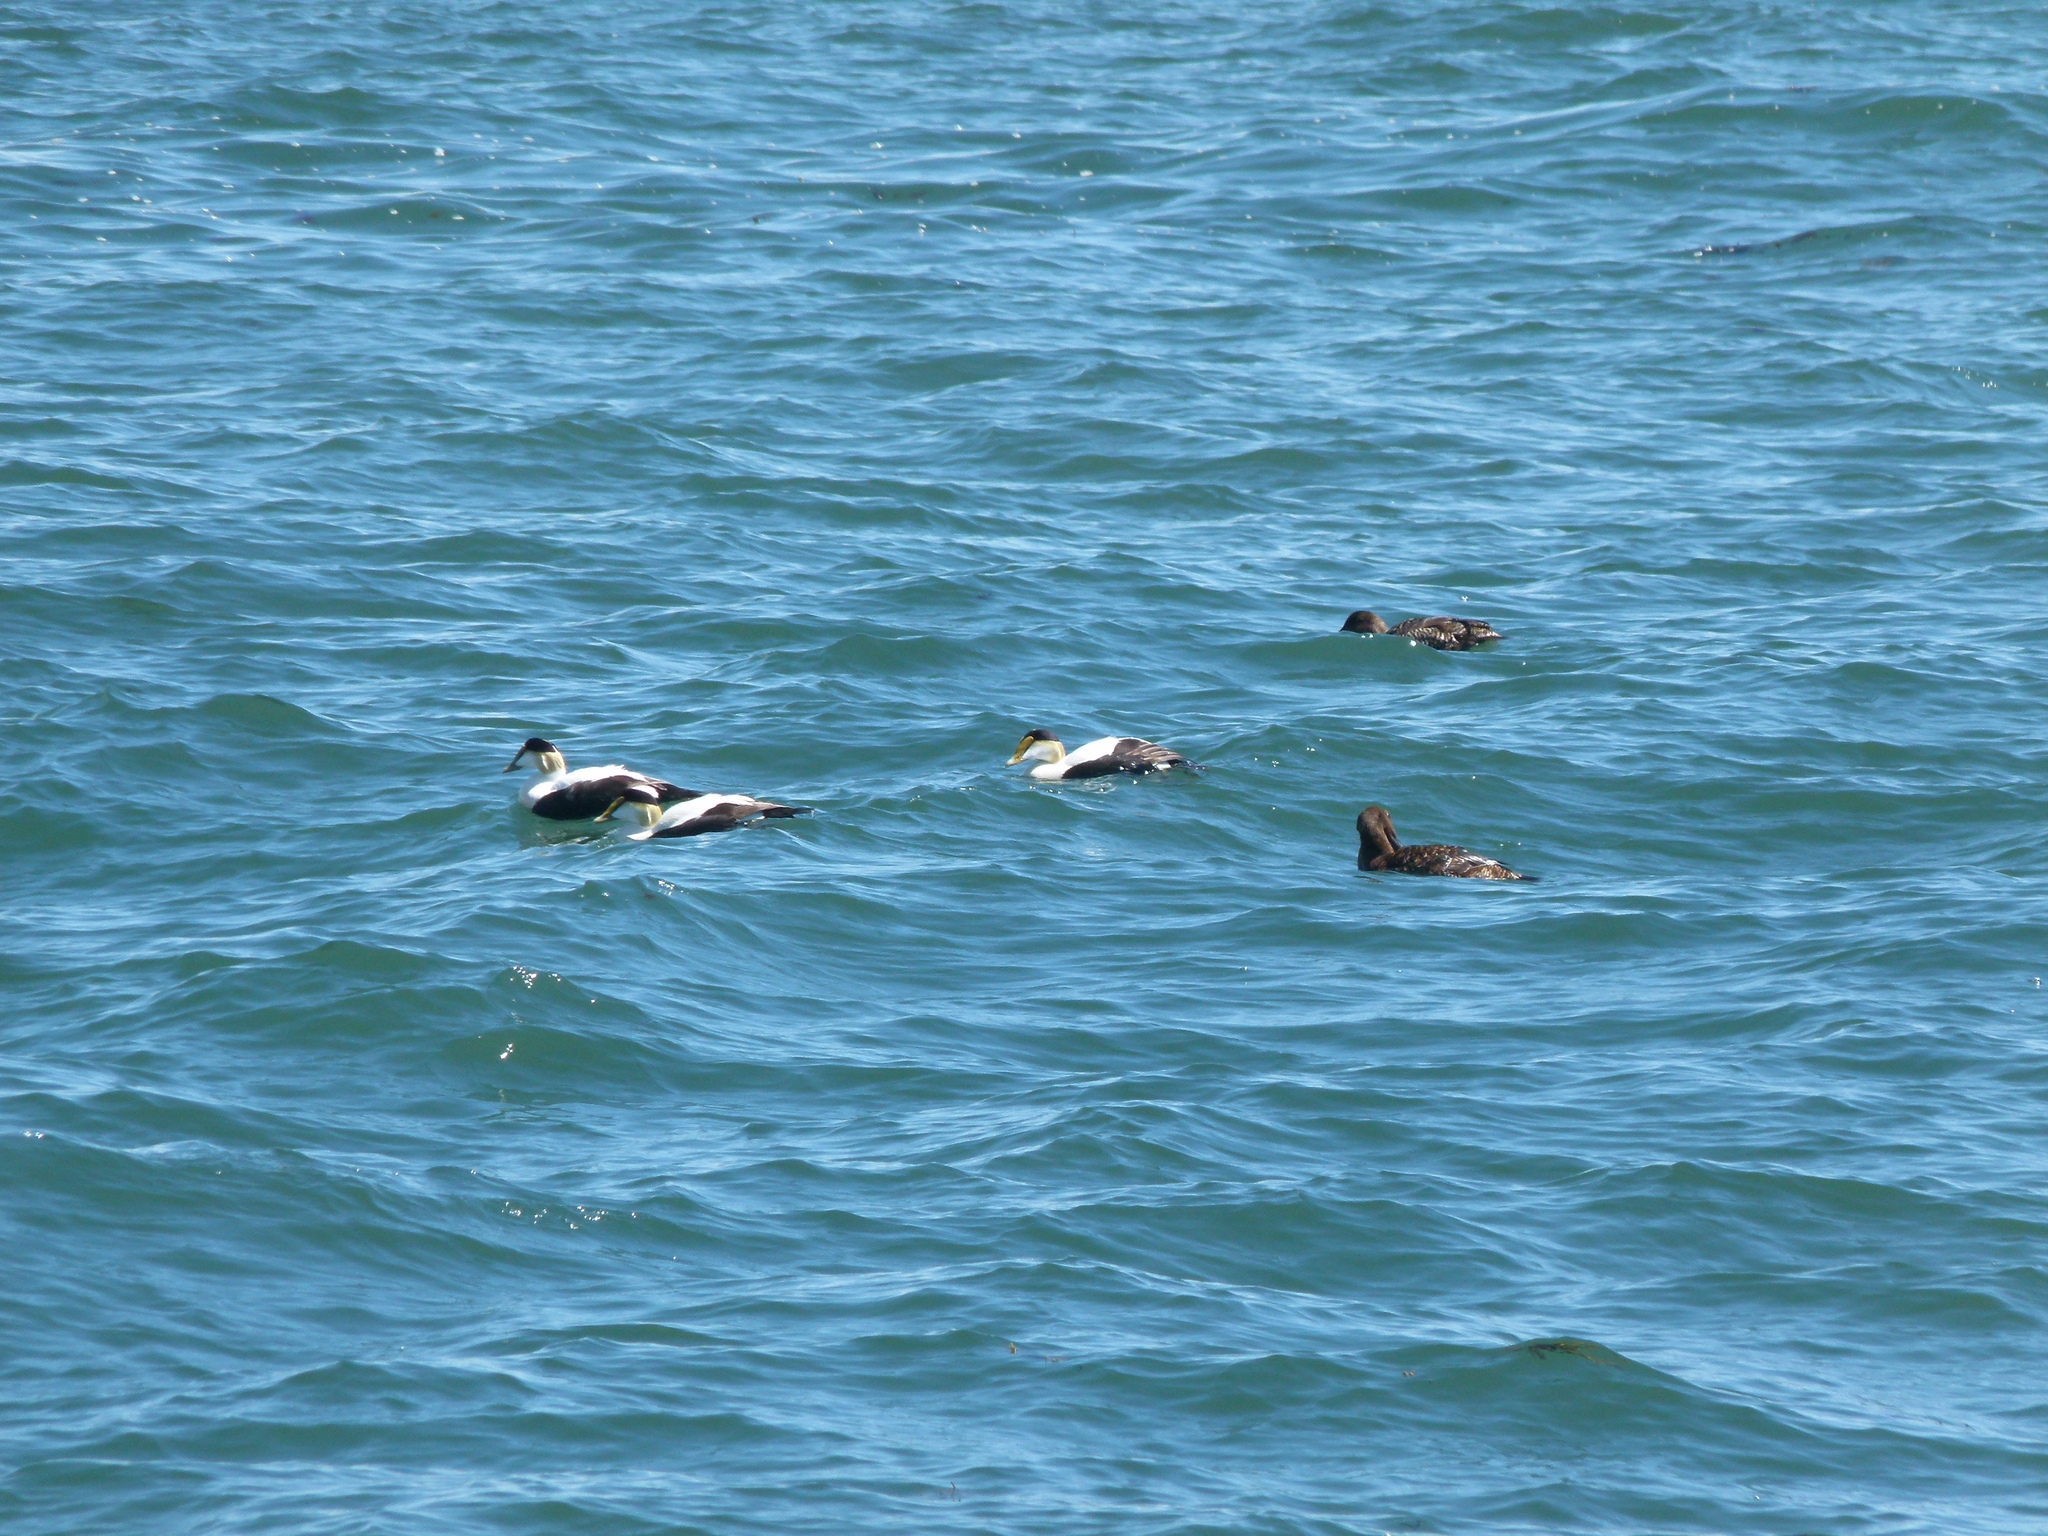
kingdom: Animalia
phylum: Chordata
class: Aves
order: Anseriformes
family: Anatidae
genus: Somateria
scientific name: Somateria mollissima
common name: Common eider
